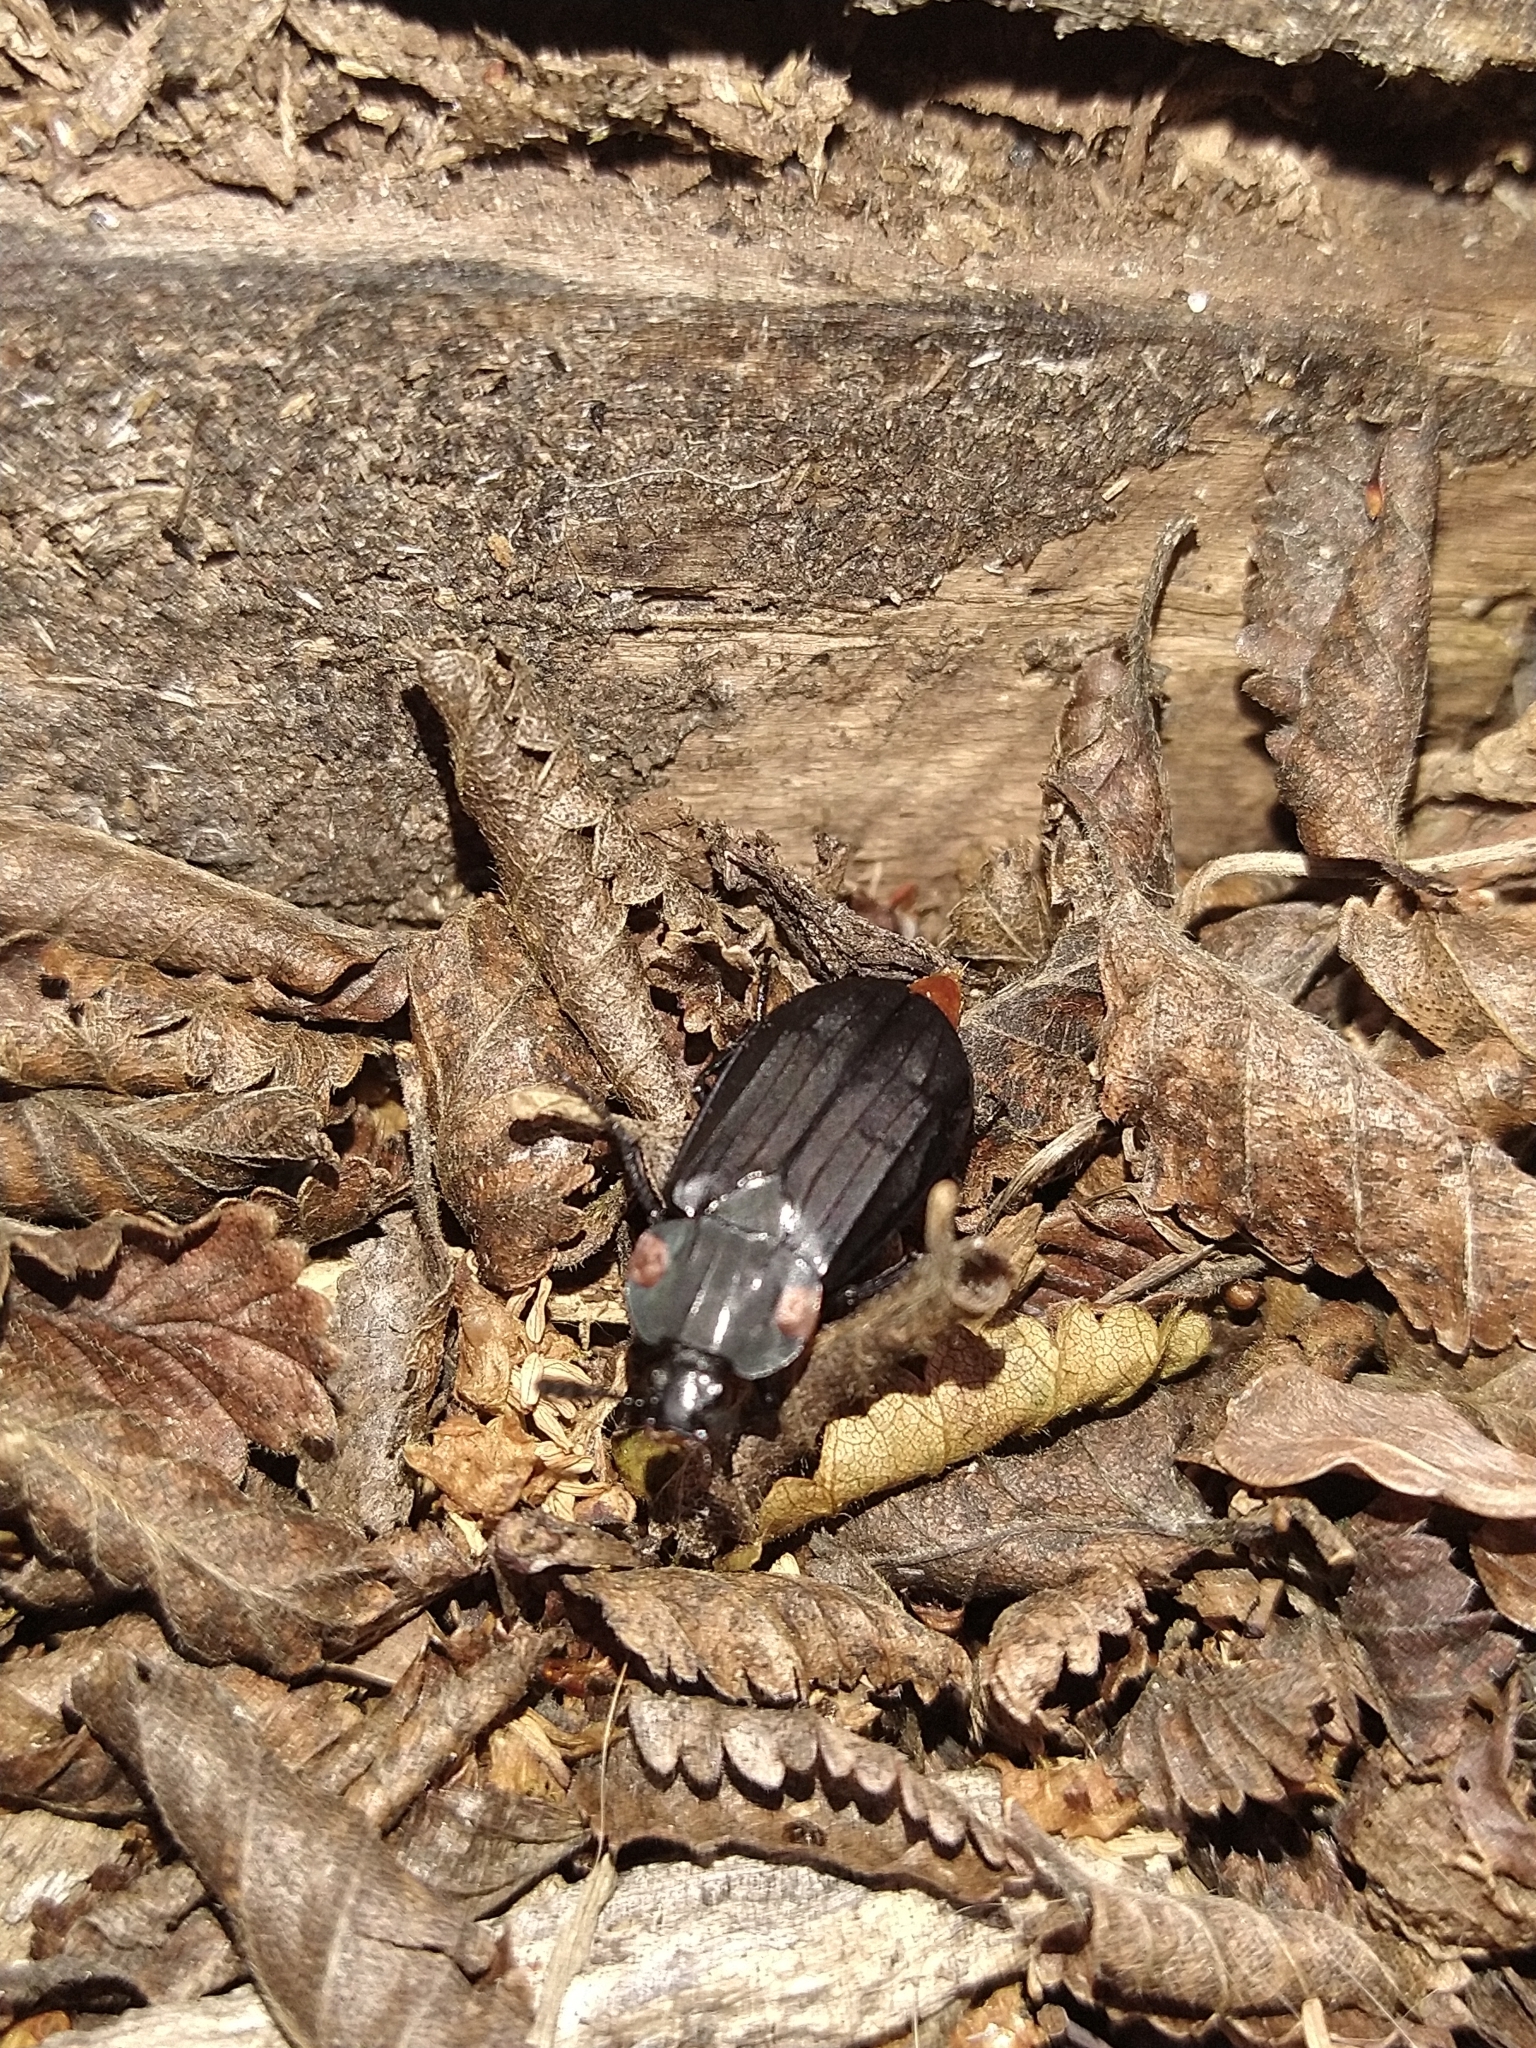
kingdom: Animalia
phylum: Arthropoda
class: Insecta
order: Coleoptera
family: Staphylinidae
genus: Oxelytrum
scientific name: Oxelytrum selknan
